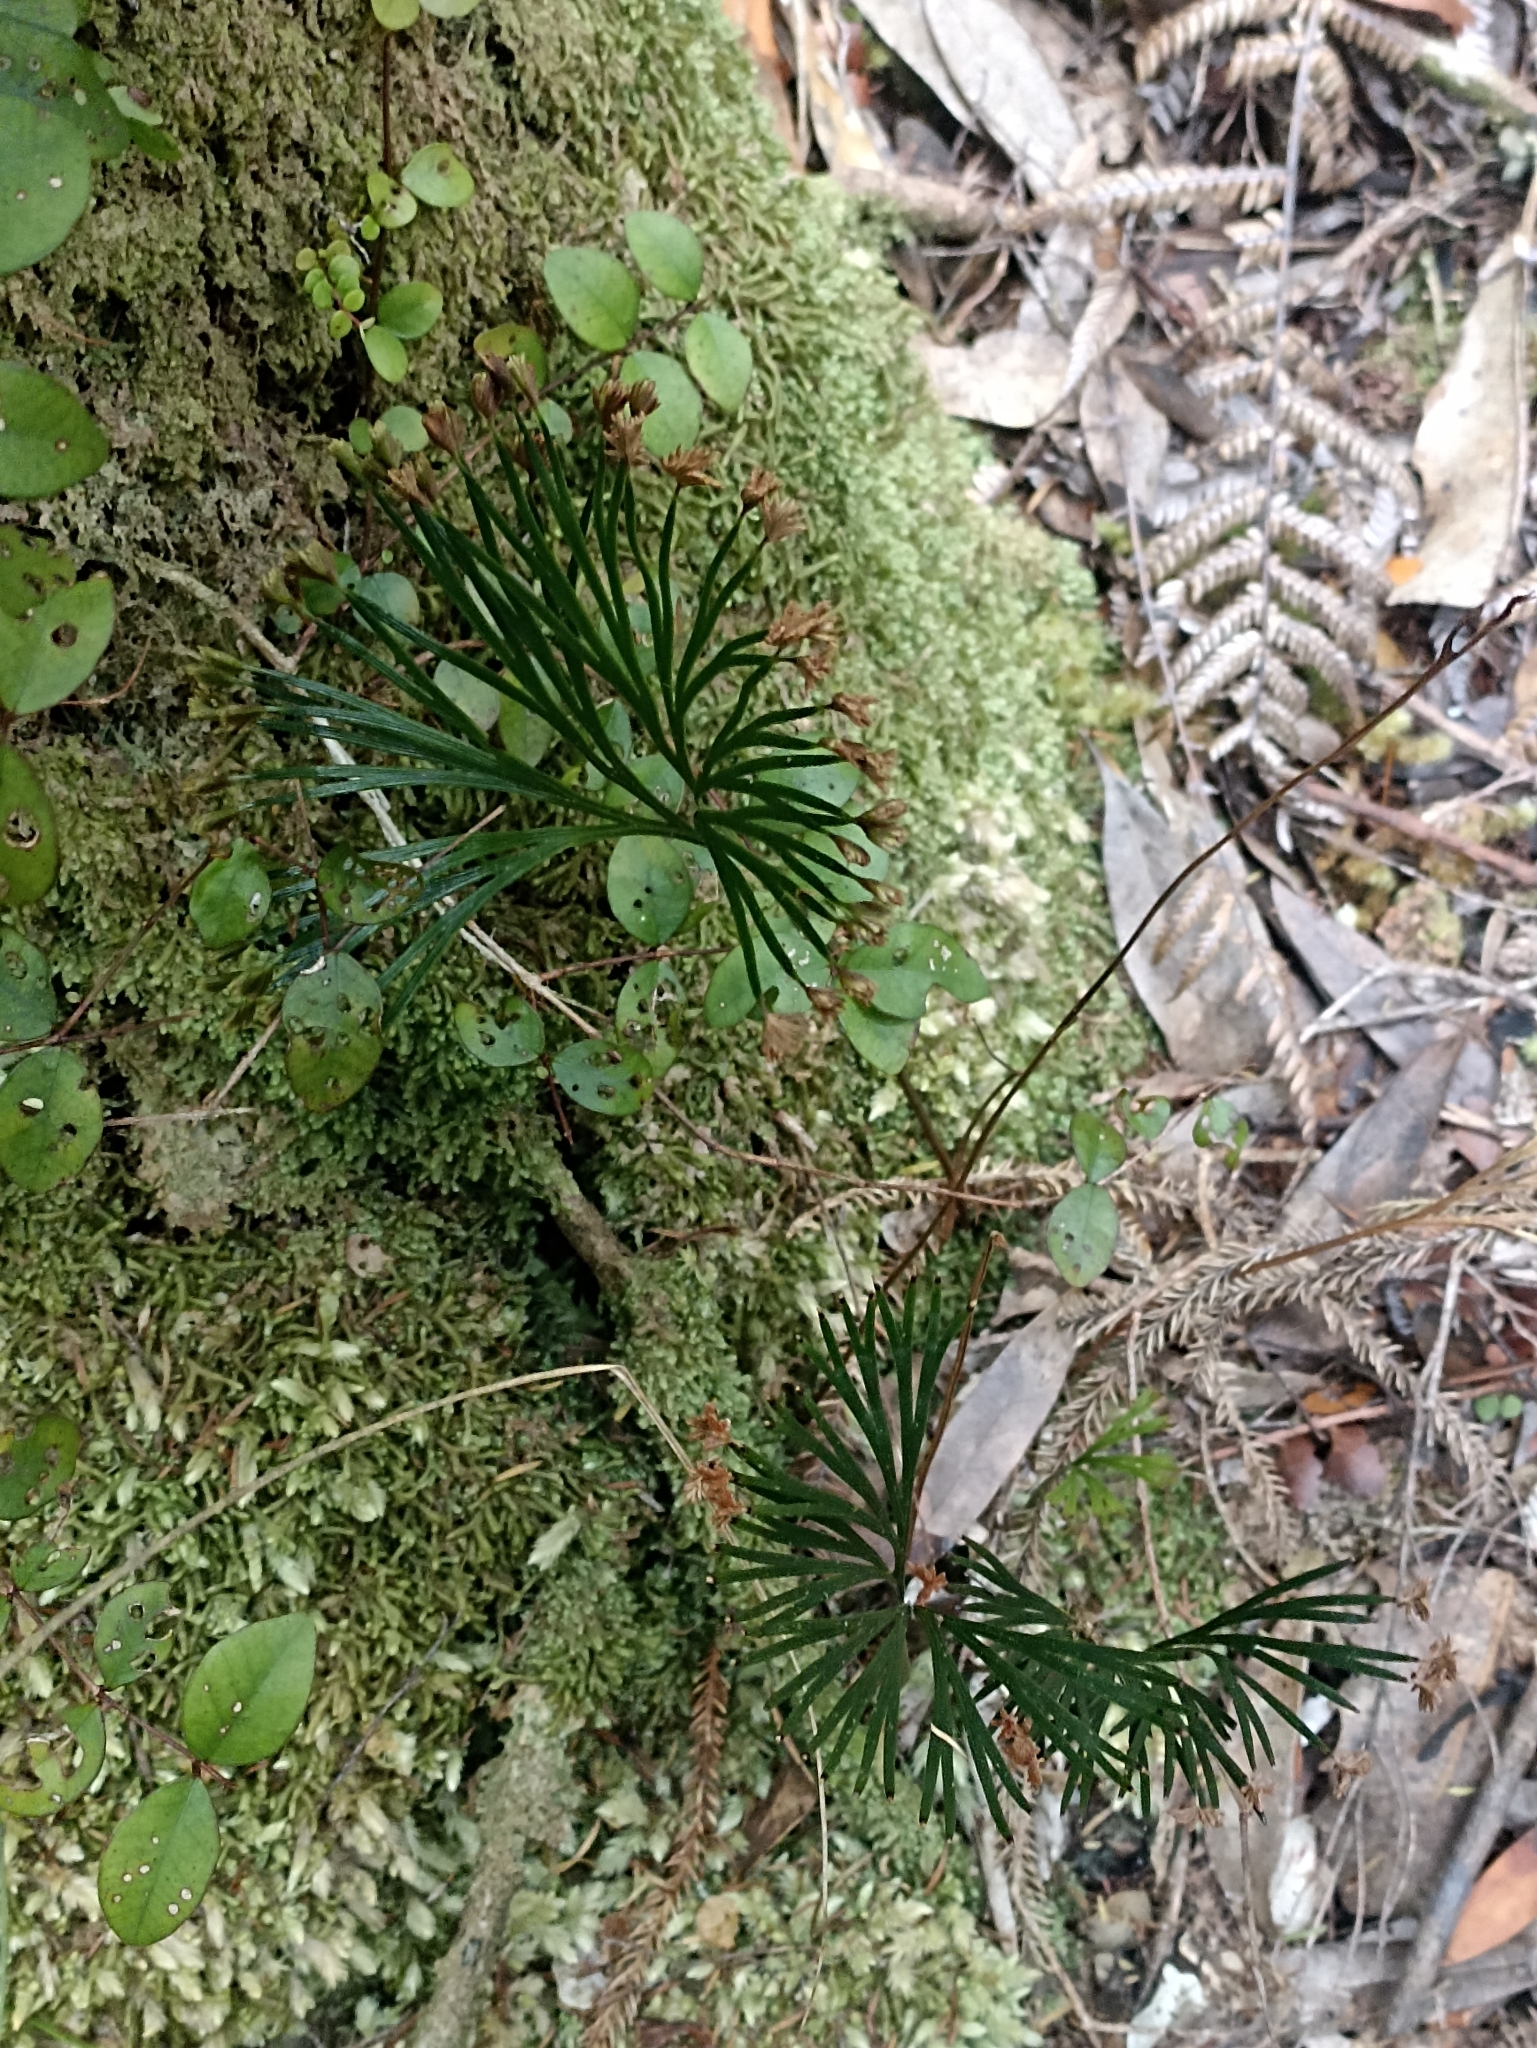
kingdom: Plantae
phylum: Tracheophyta
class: Polypodiopsida
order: Schizaeales
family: Schizaeaceae
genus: Schizaea
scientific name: Schizaea dichotoma
